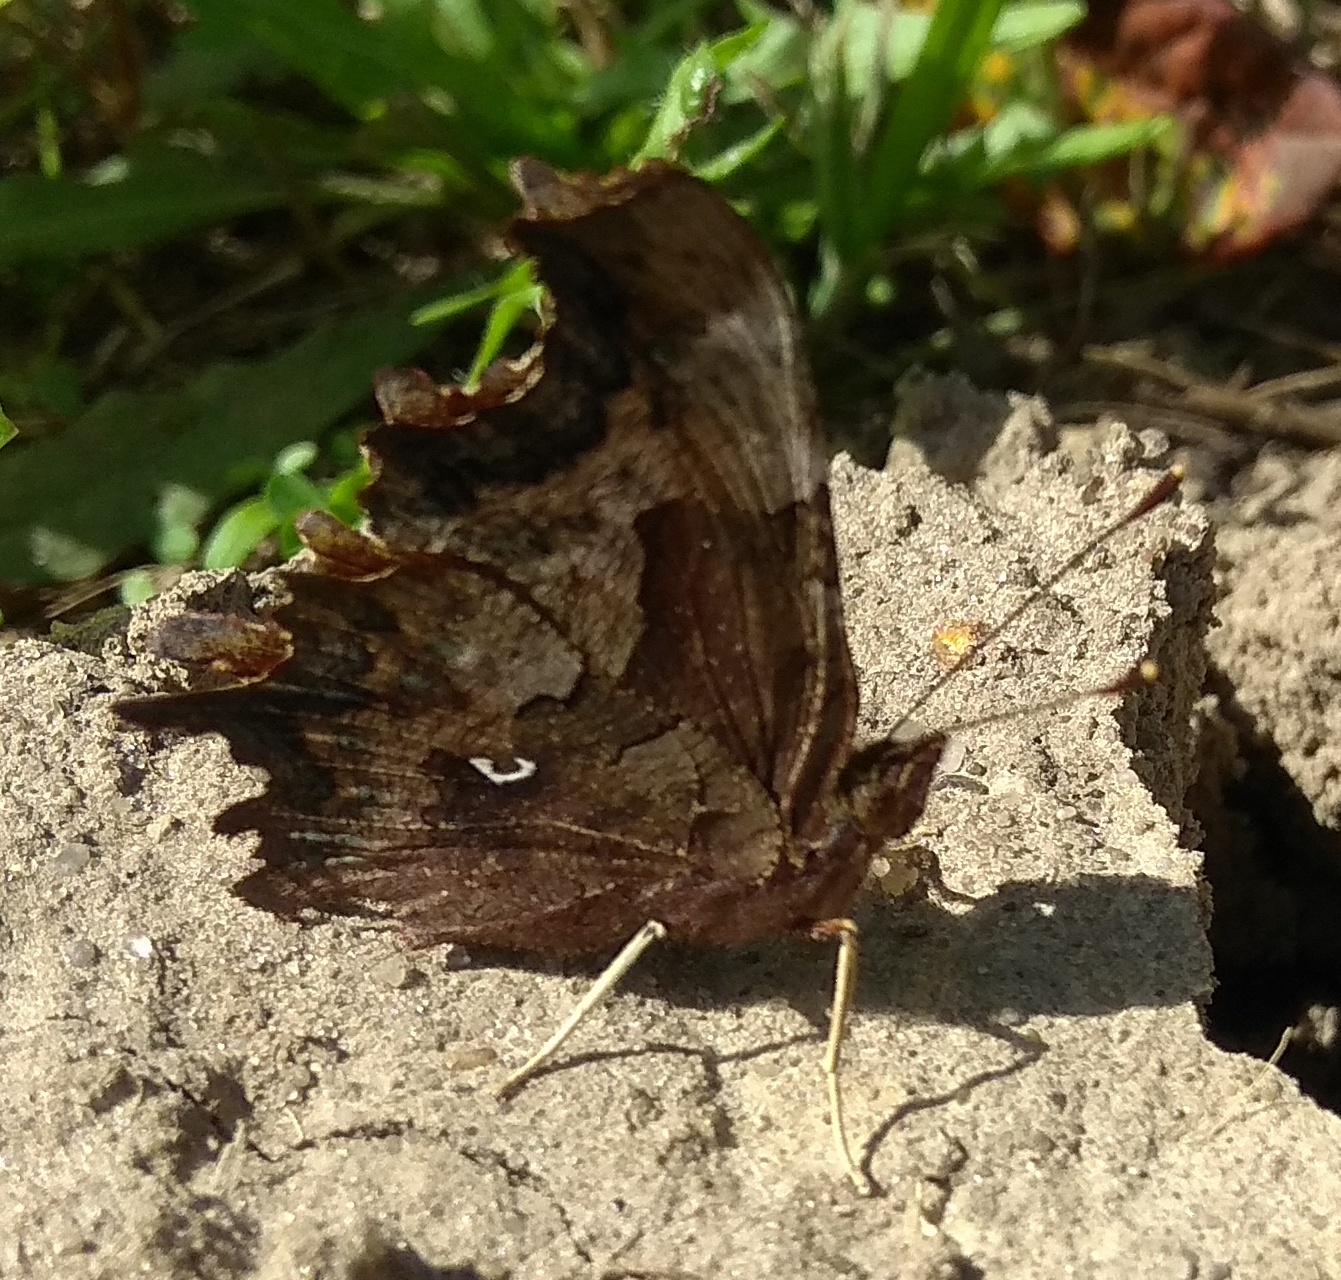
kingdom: Animalia
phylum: Arthropoda
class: Insecta
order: Lepidoptera
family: Nymphalidae
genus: Polygonia
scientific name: Polygonia c-album
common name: Comma
